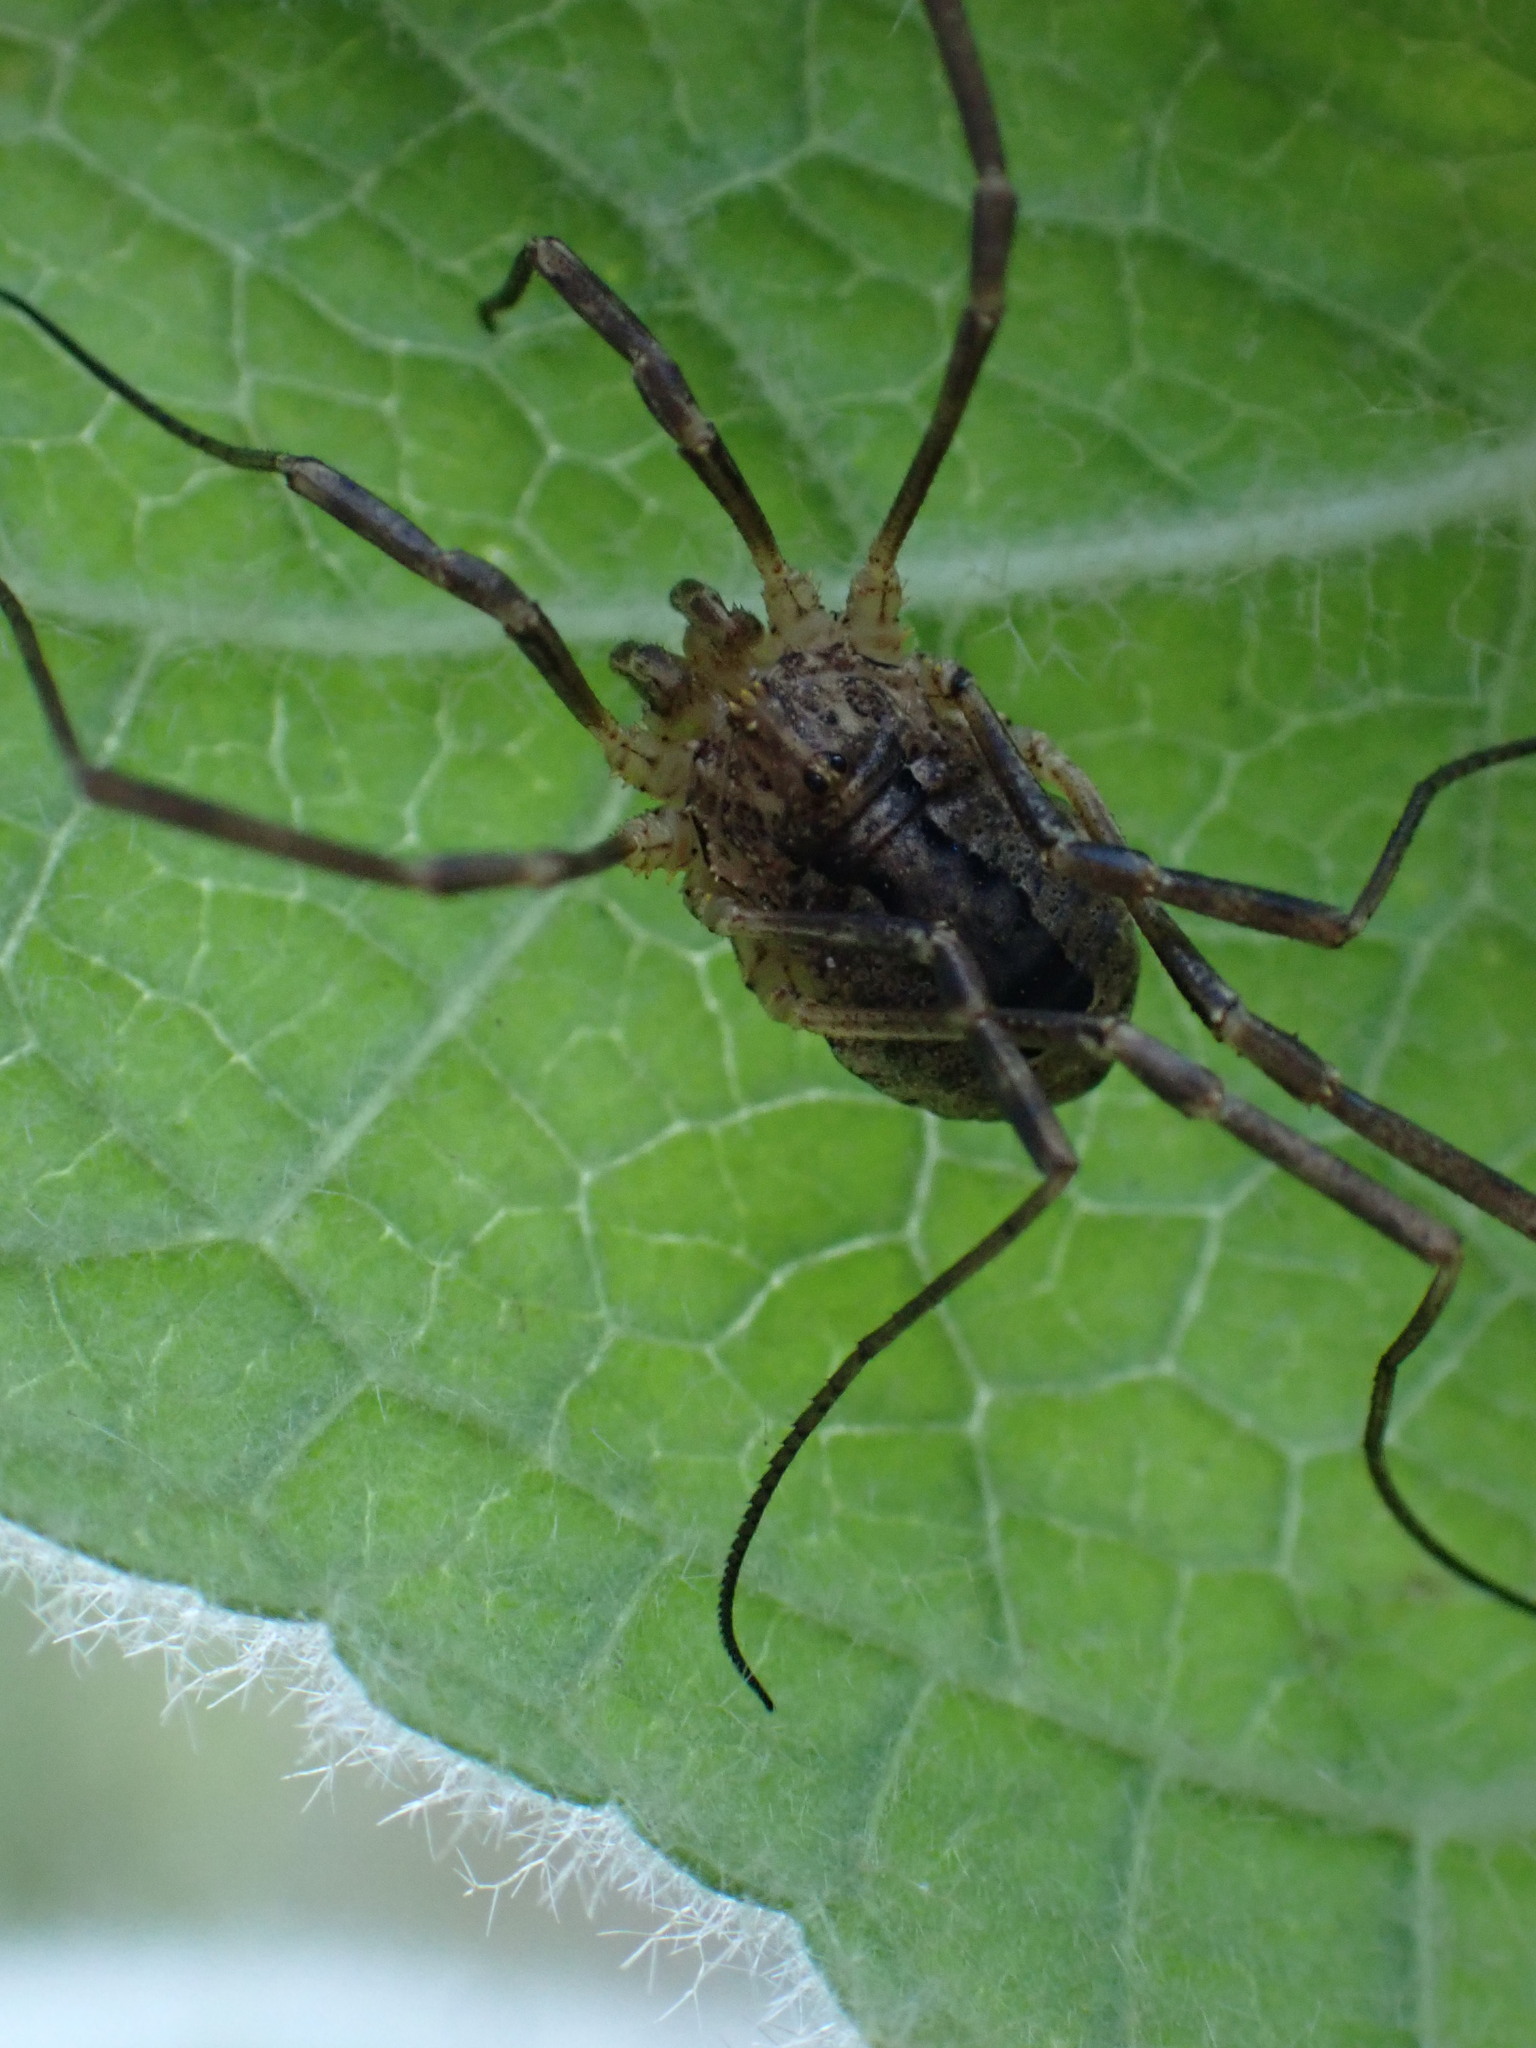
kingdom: Animalia
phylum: Arthropoda
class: Arachnida
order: Opiliones
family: Phalangiidae
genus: Odiellus
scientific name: Odiellus spinosus
